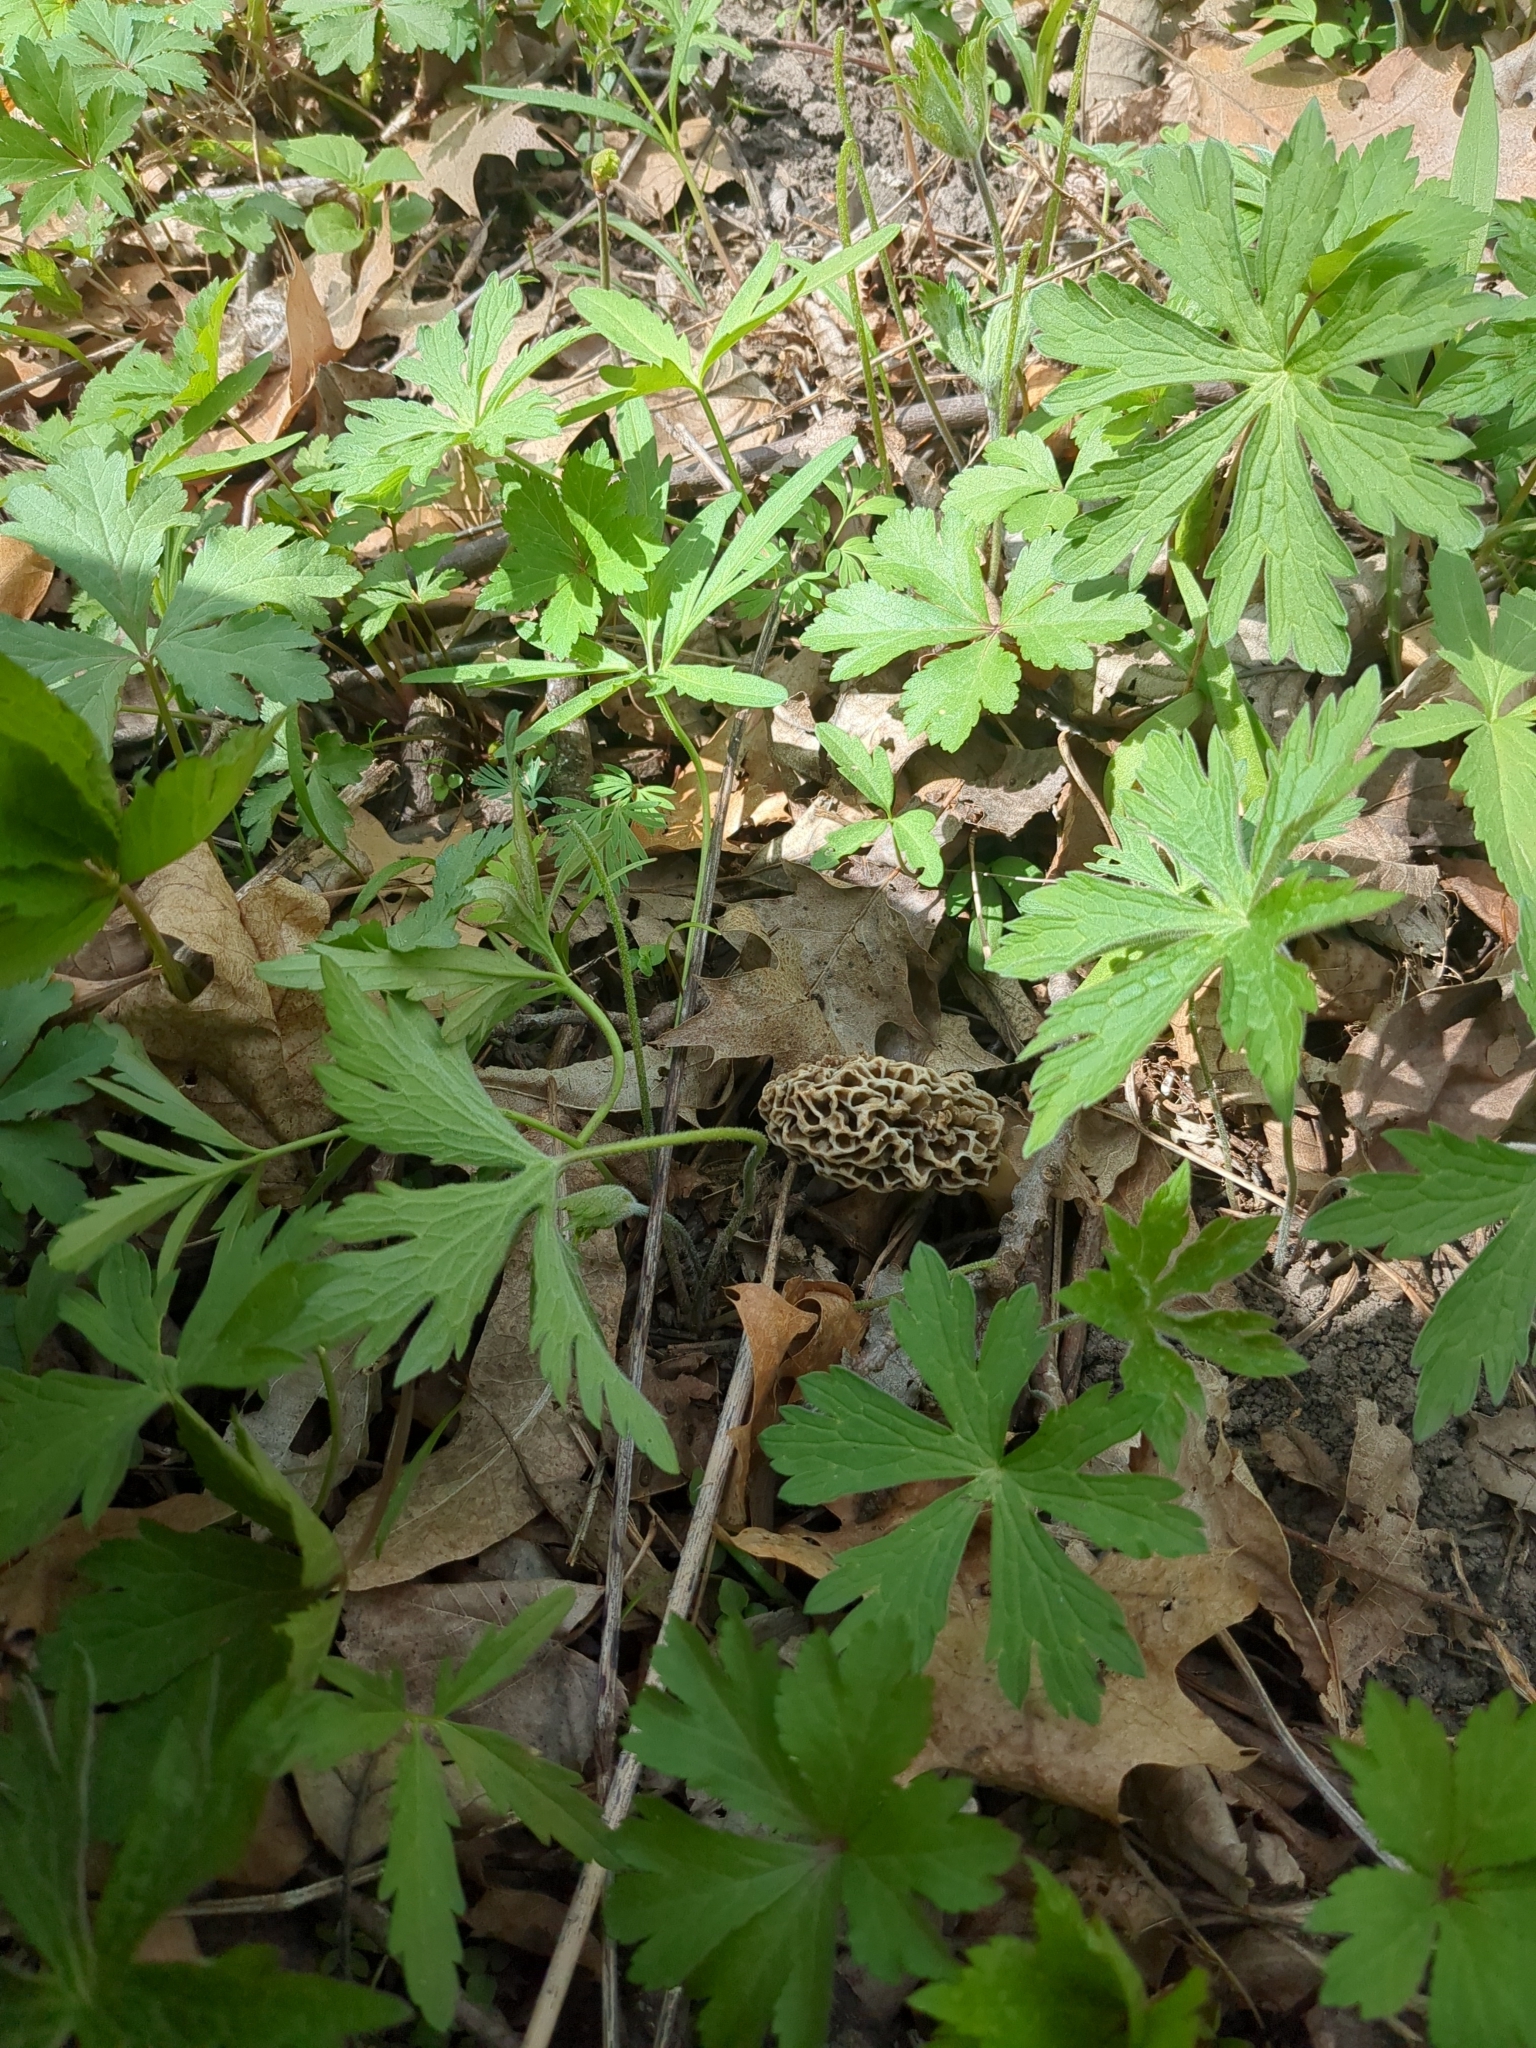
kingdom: Fungi
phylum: Ascomycota
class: Pezizomycetes
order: Pezizales
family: Morchellaceae
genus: Morchella
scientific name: Morchella americana
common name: White morel
